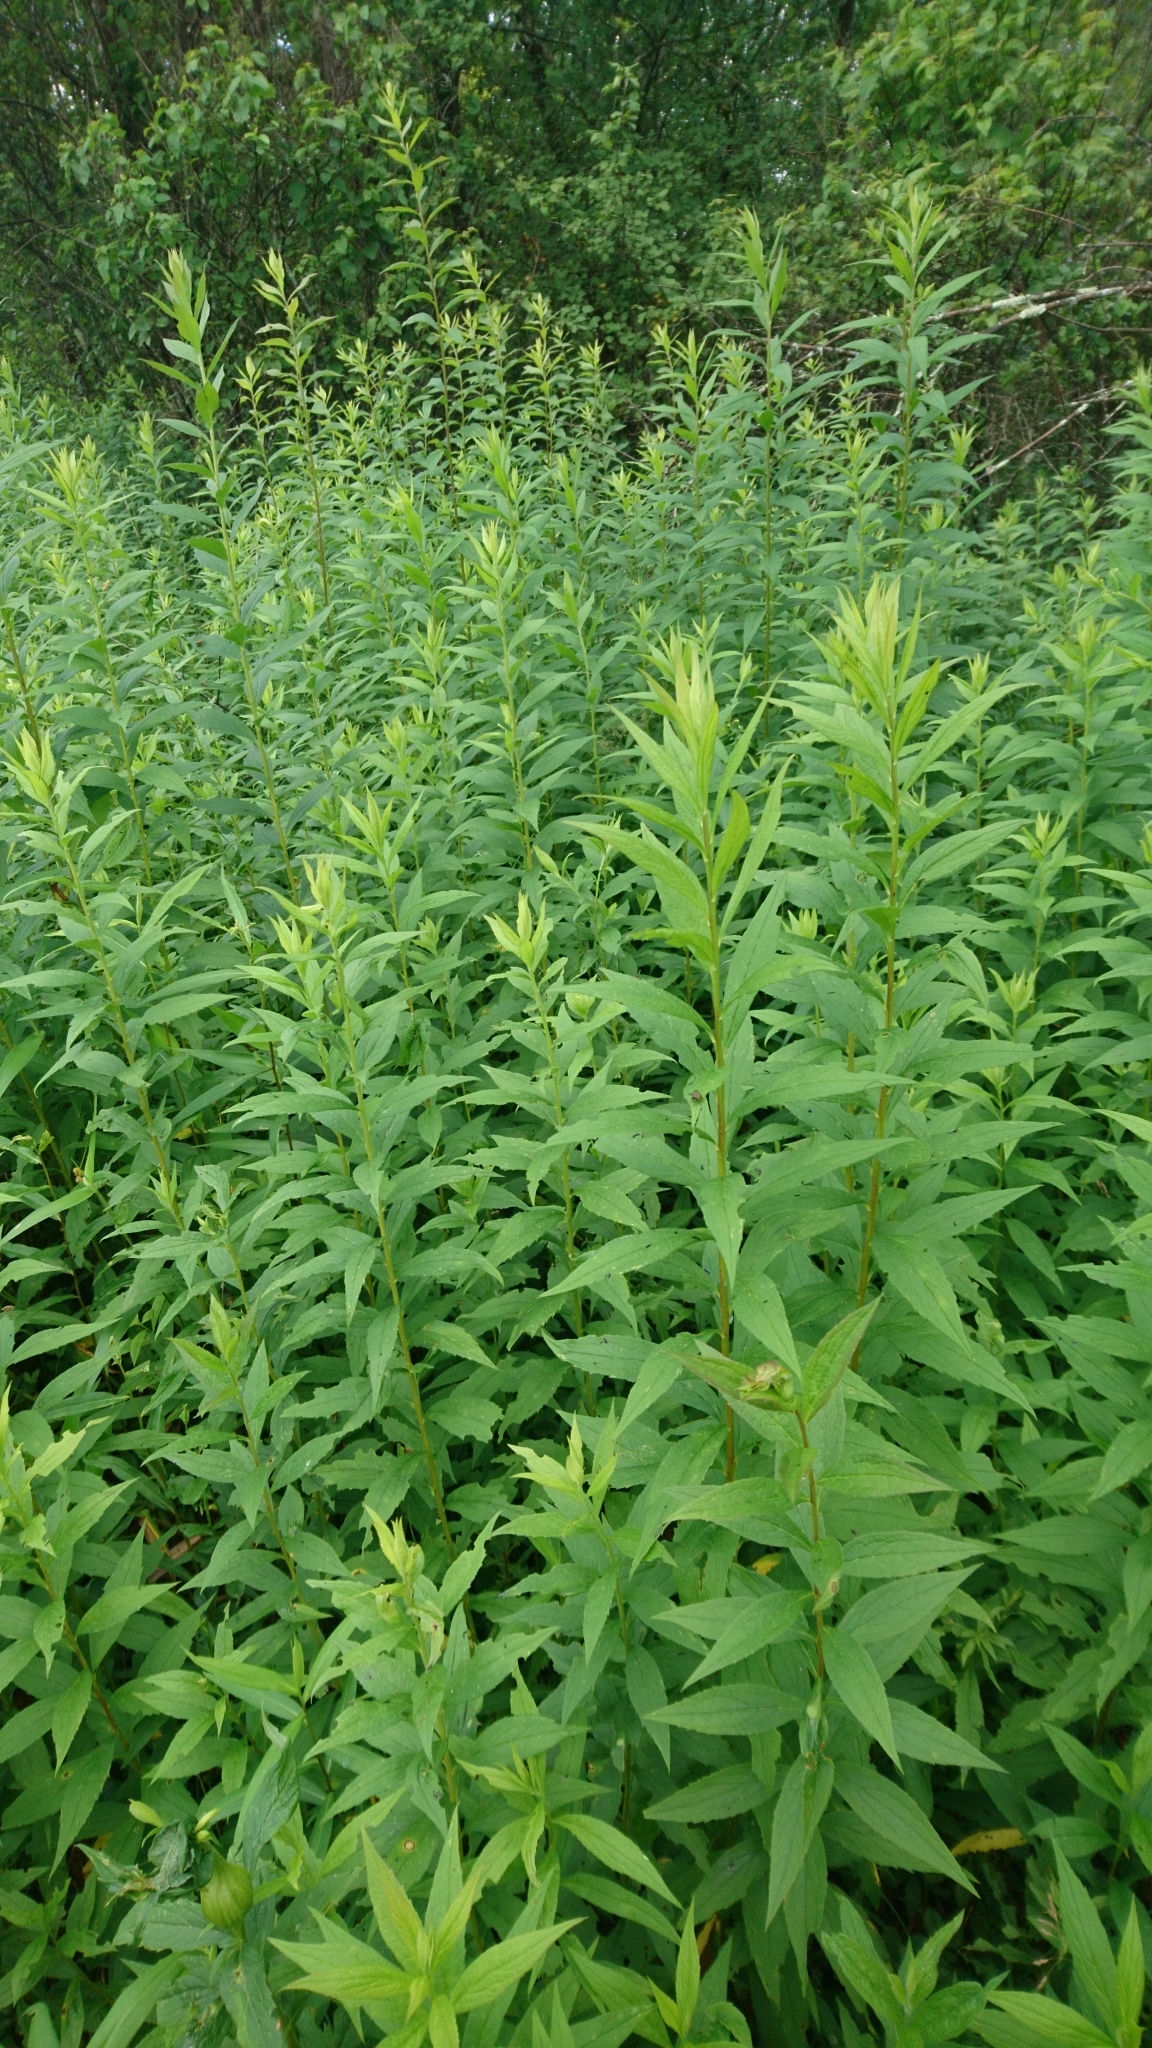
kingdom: Plantae
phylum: Tracheophyta
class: Magnoliopsida
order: Asterales
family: Asteraceae
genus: Solidago
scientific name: Solidago rugosa
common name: Rough-stemmed goldenrod
